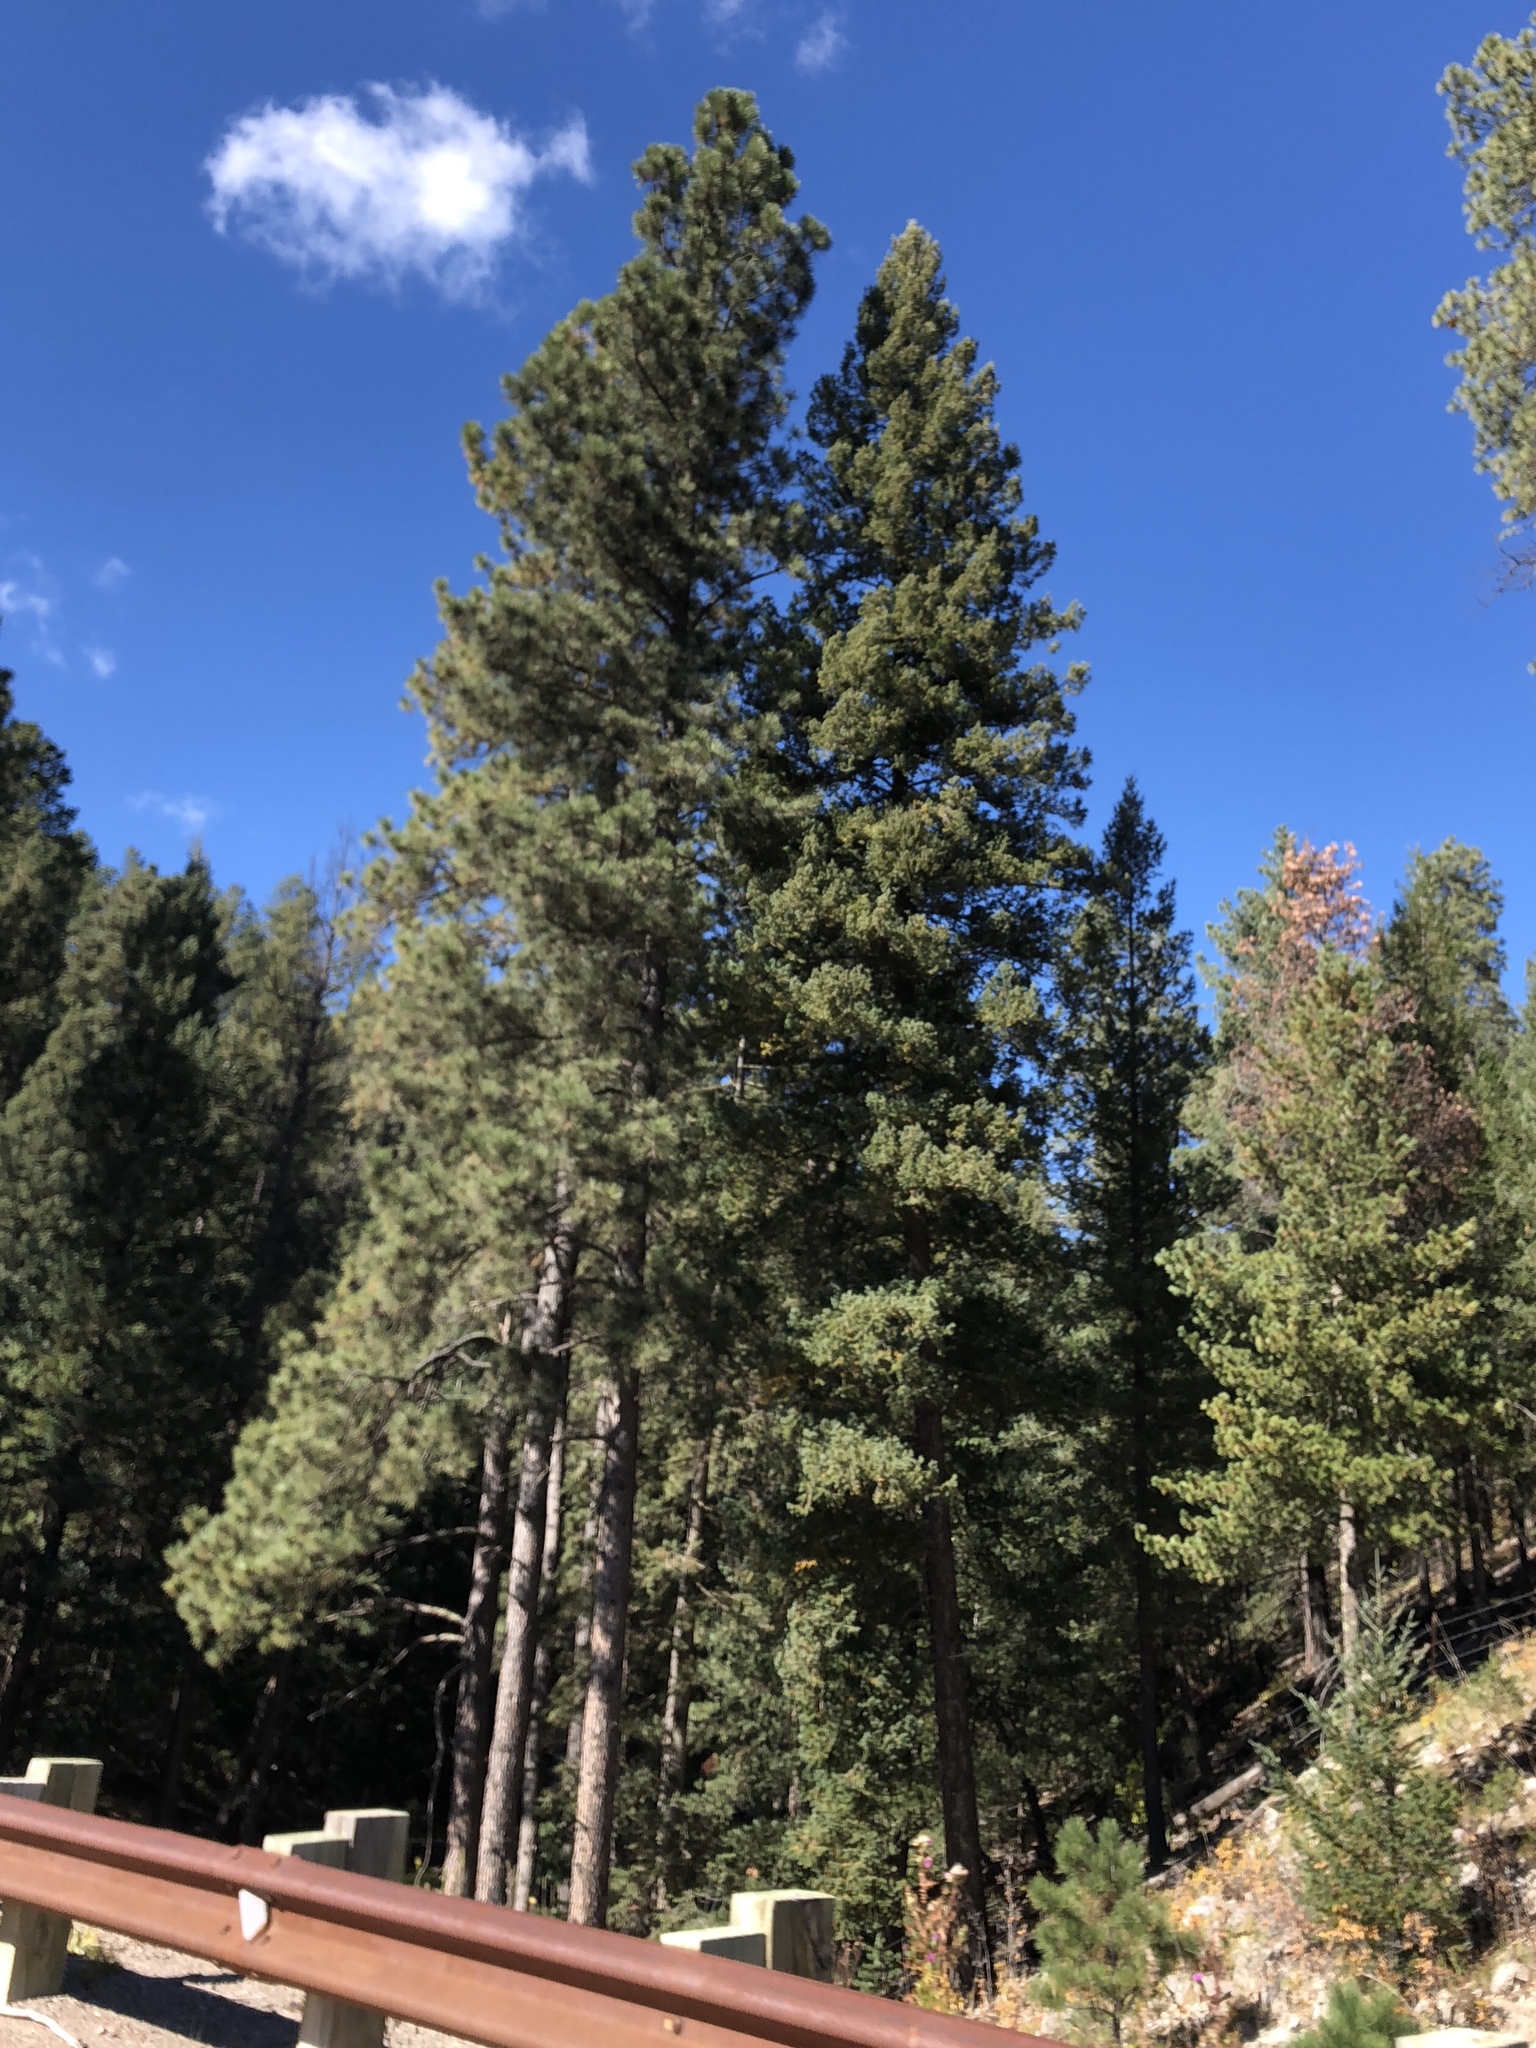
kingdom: Plantae
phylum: Tracheophyta
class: Pinopsida
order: Pinales
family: Pinaceae
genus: Pinus
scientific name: Pinus ponderosa
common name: Western yellow-pine
